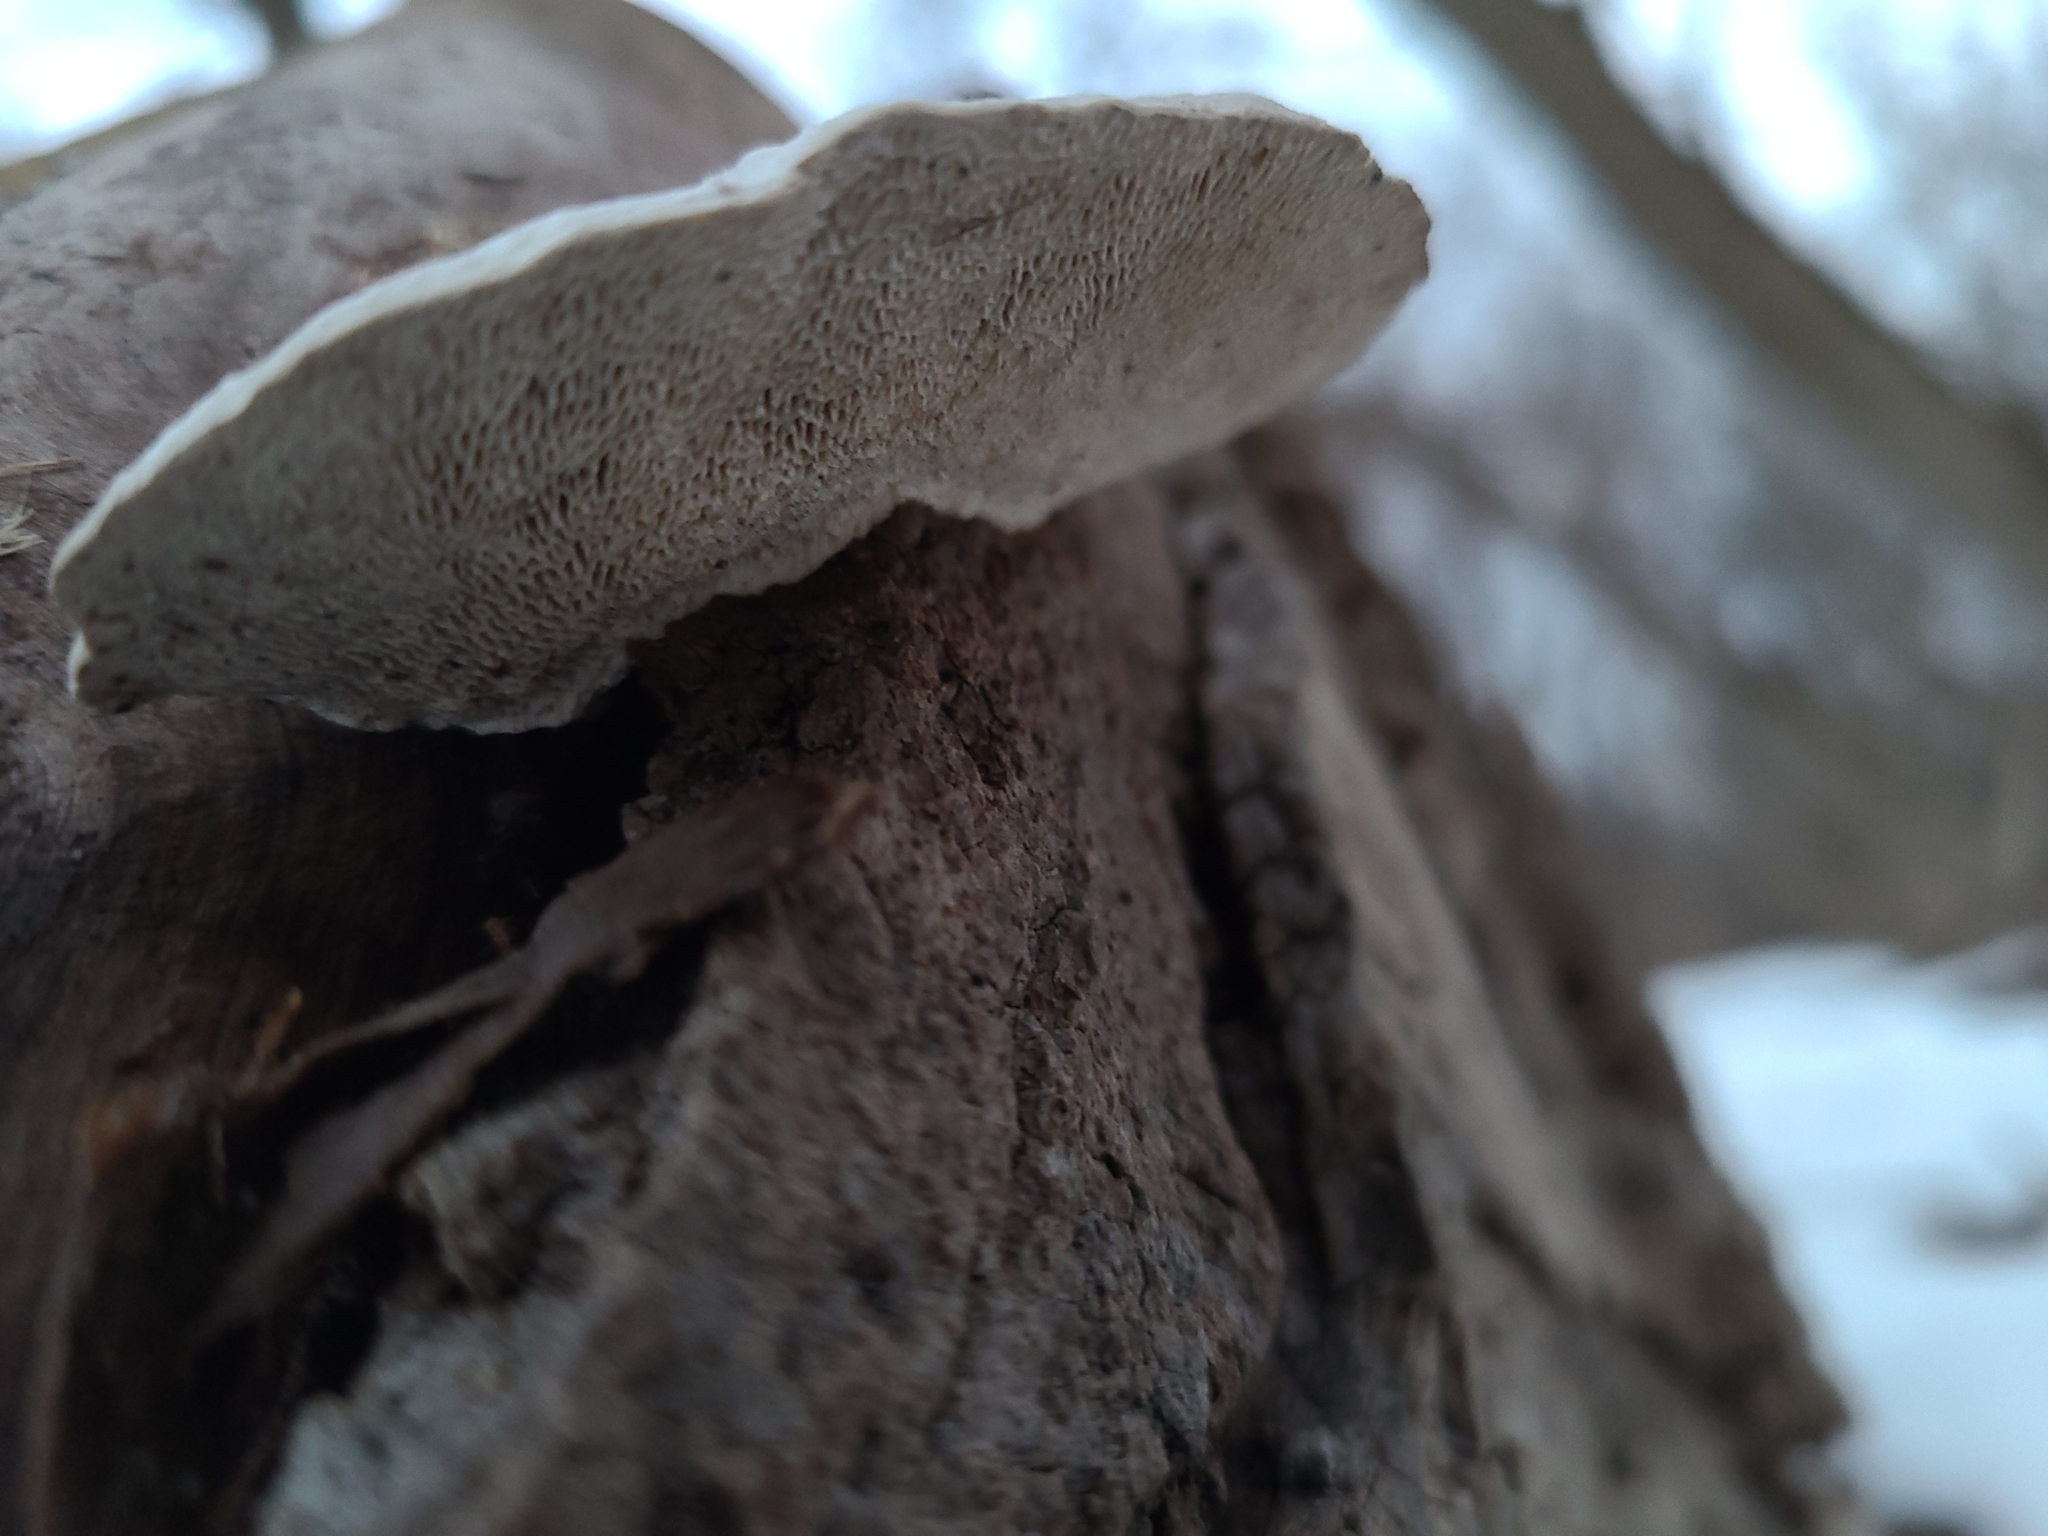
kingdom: Fungi
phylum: Basidiomycota
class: Agaricomycetes
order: Polyporales
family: Polyporaceae
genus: Trametes
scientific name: Trametes gibbosa
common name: Lumpy bracket
